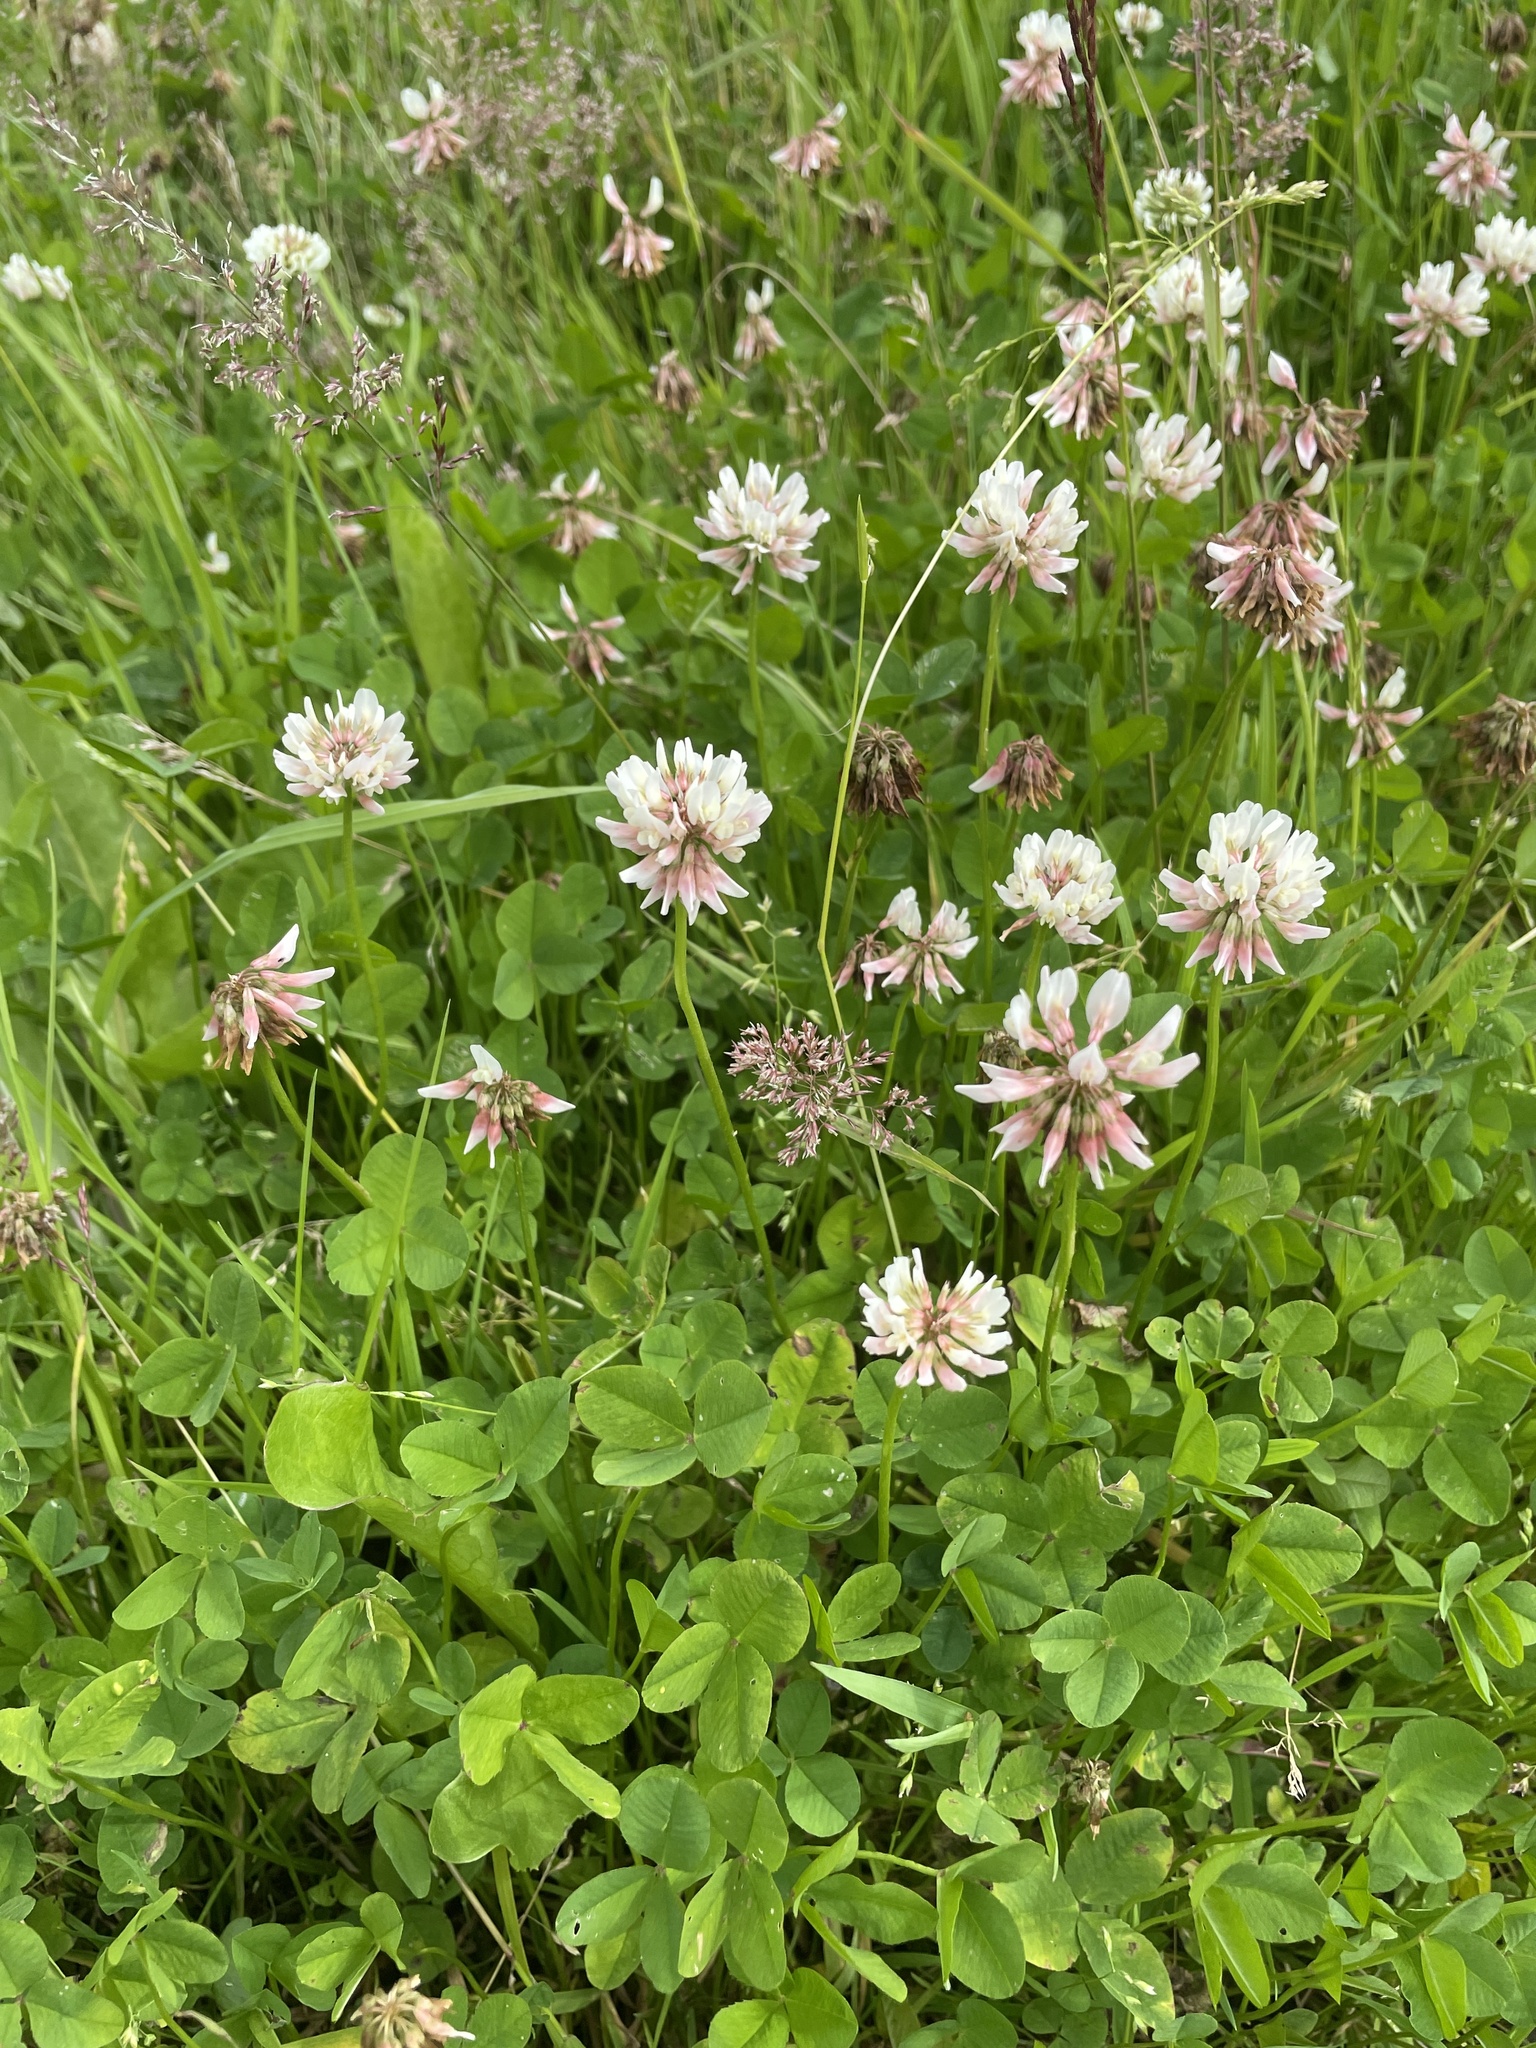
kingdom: Plantae
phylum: Tracheophyta
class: Magnoliopsida
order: Fabales
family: Fabaceae
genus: Trifolium
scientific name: Trifolium repens
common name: White clover
